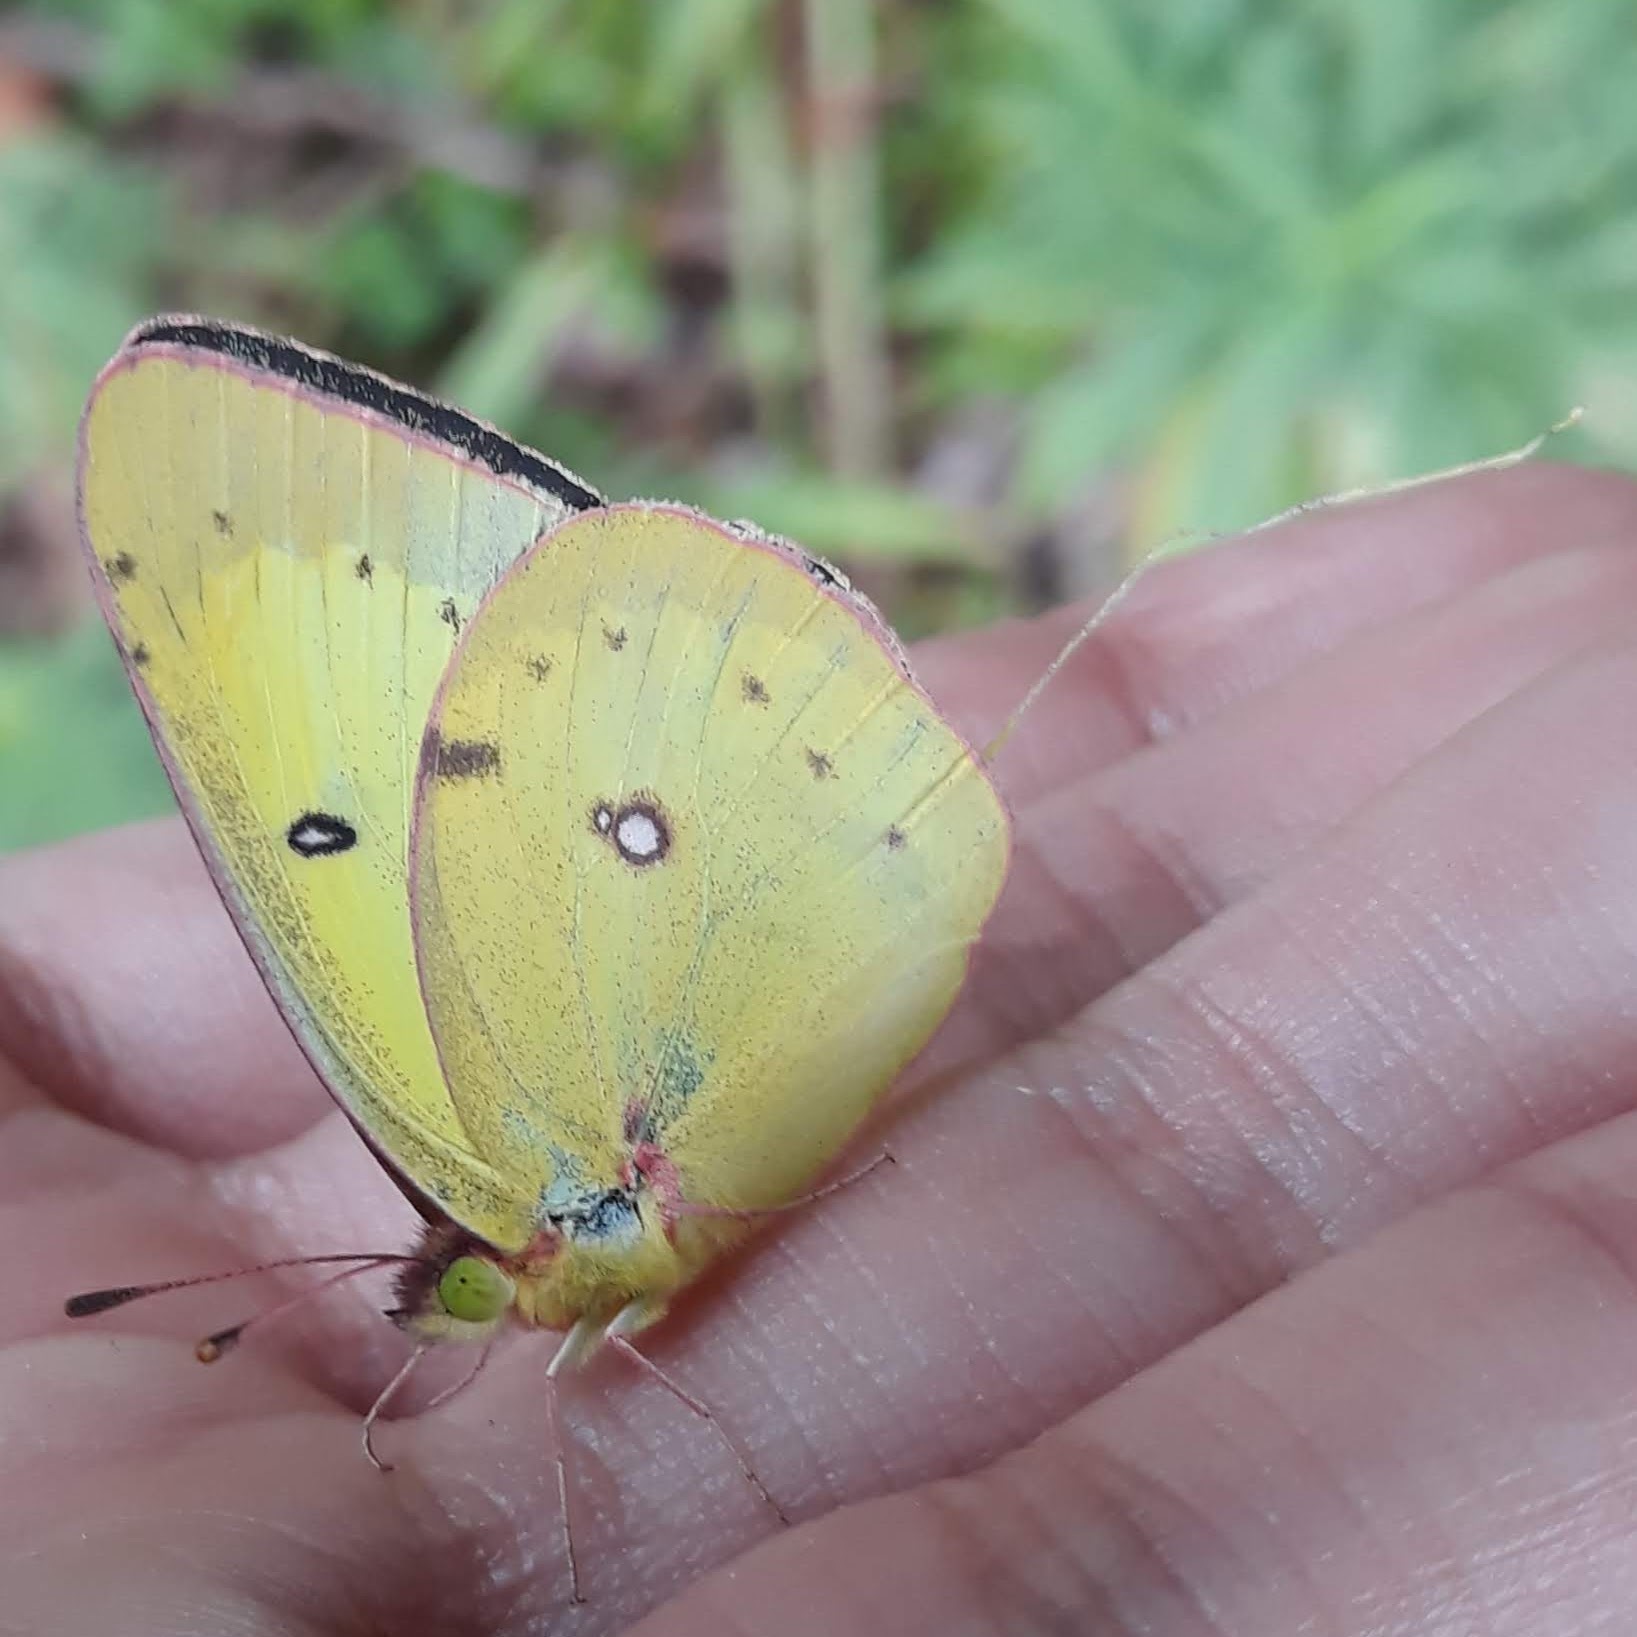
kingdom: Animalia
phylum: Arthropoda
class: Insecta
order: Lepidoptera
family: Pieridae
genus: Colias
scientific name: Colias philodice
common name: Clouded sulphur
